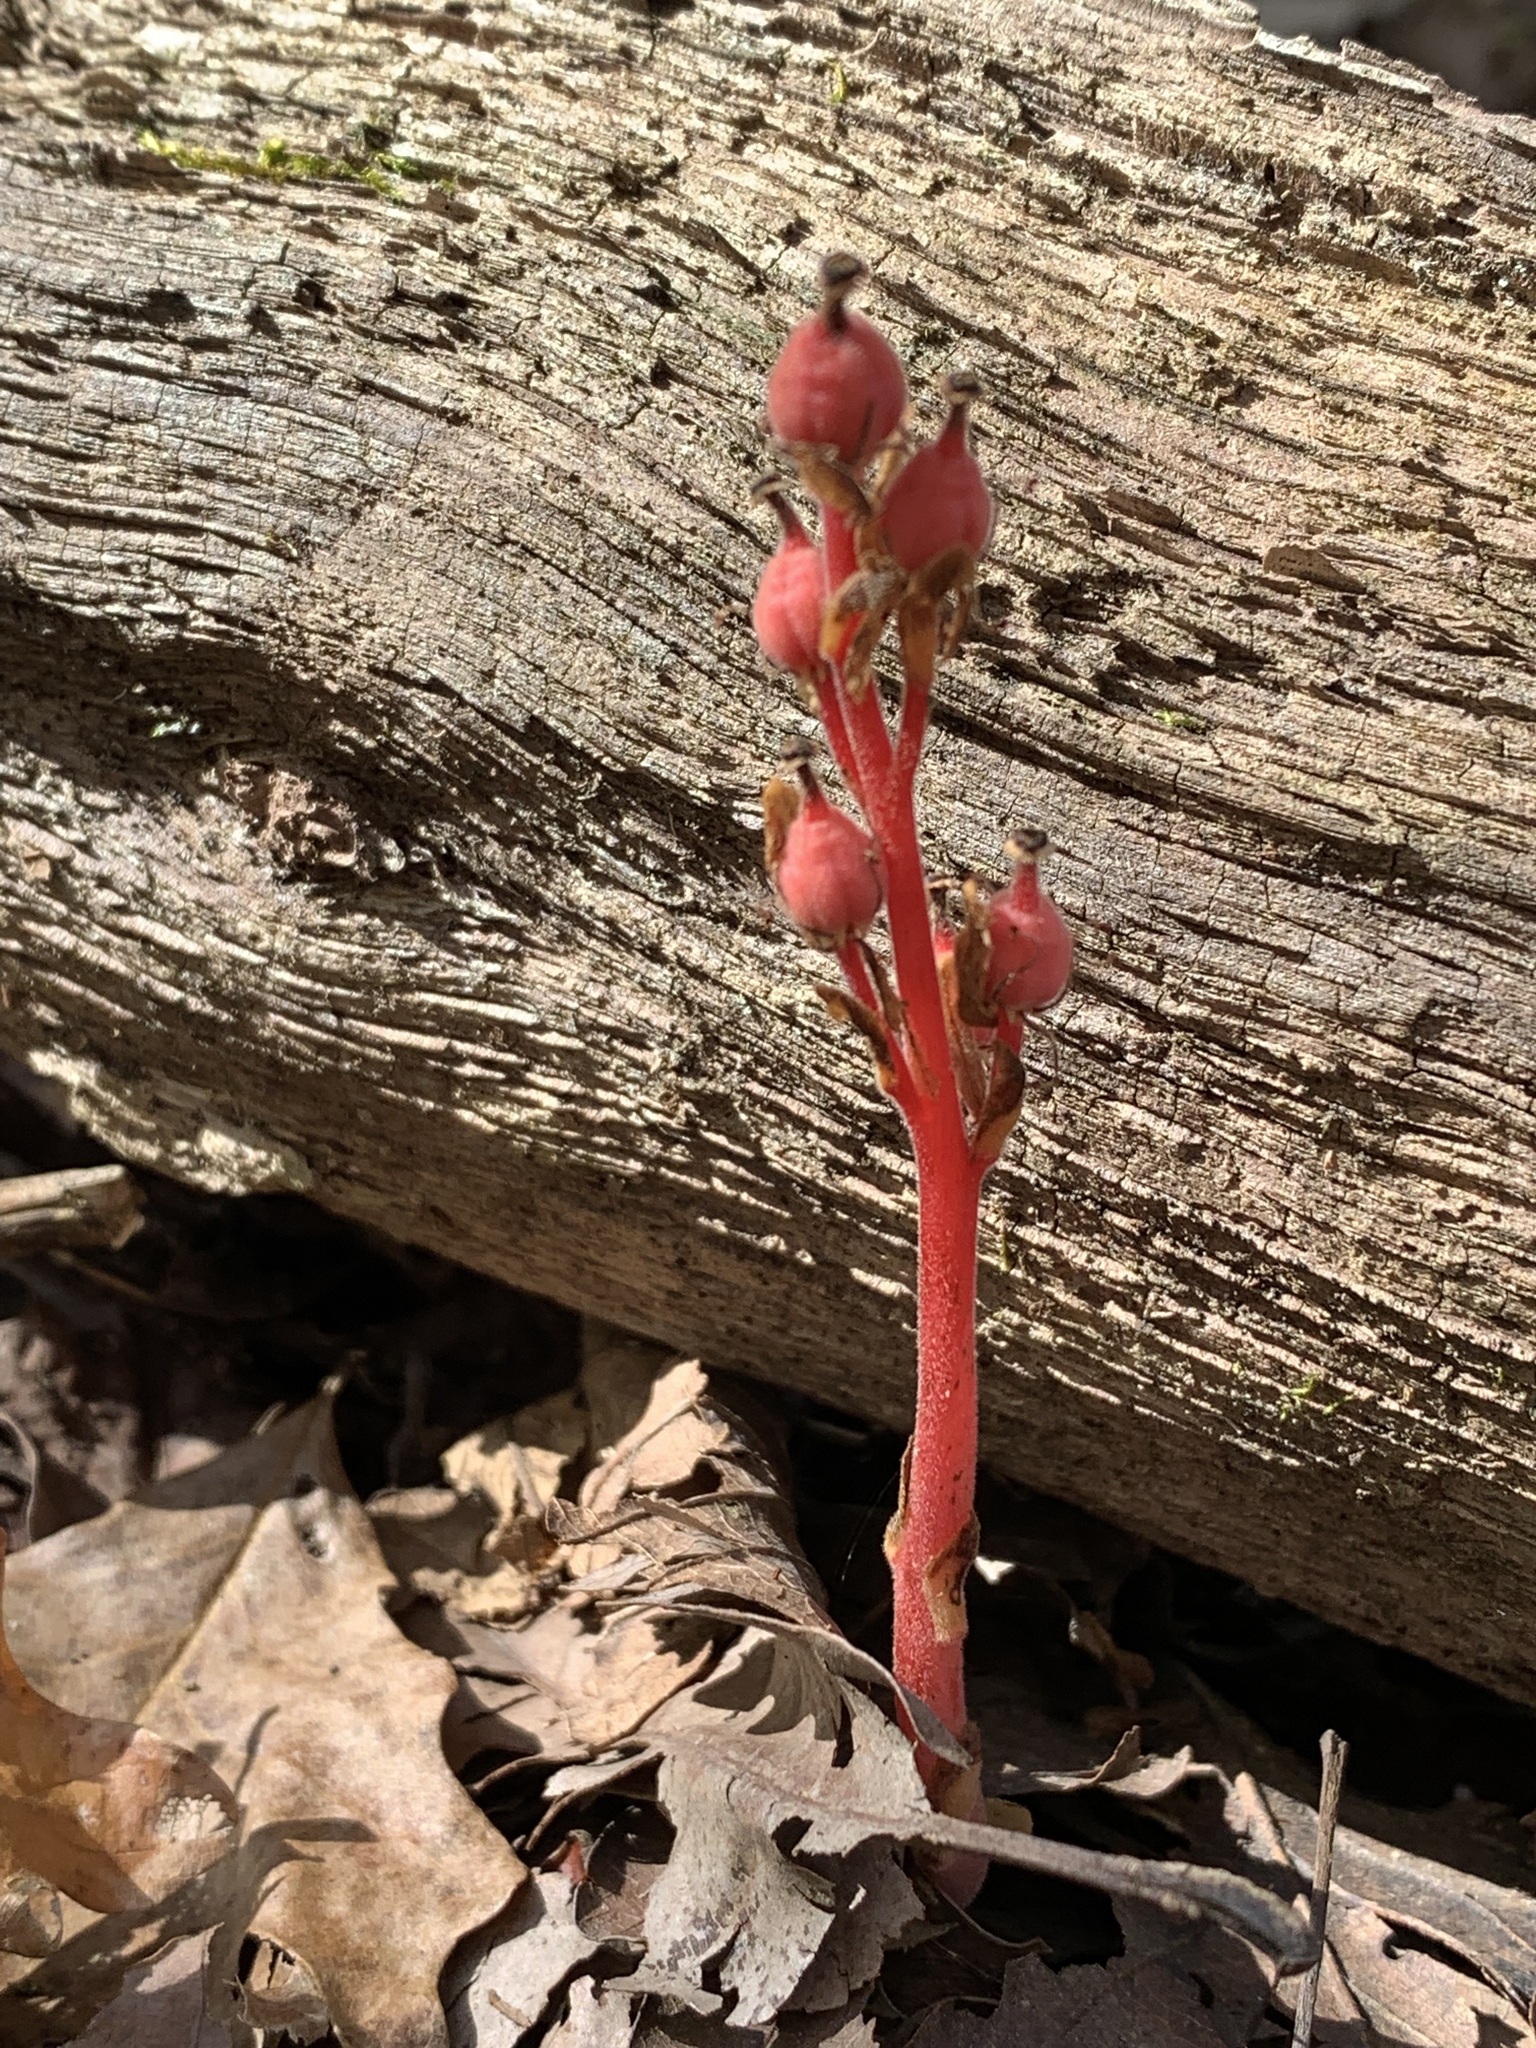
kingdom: Plantae
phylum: Tracheophyta
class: Magnoliopsida
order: Ericales
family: Ericaceae
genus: Hypopitys
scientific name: Hypopitys monotropa
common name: Yellow bird's-nest
